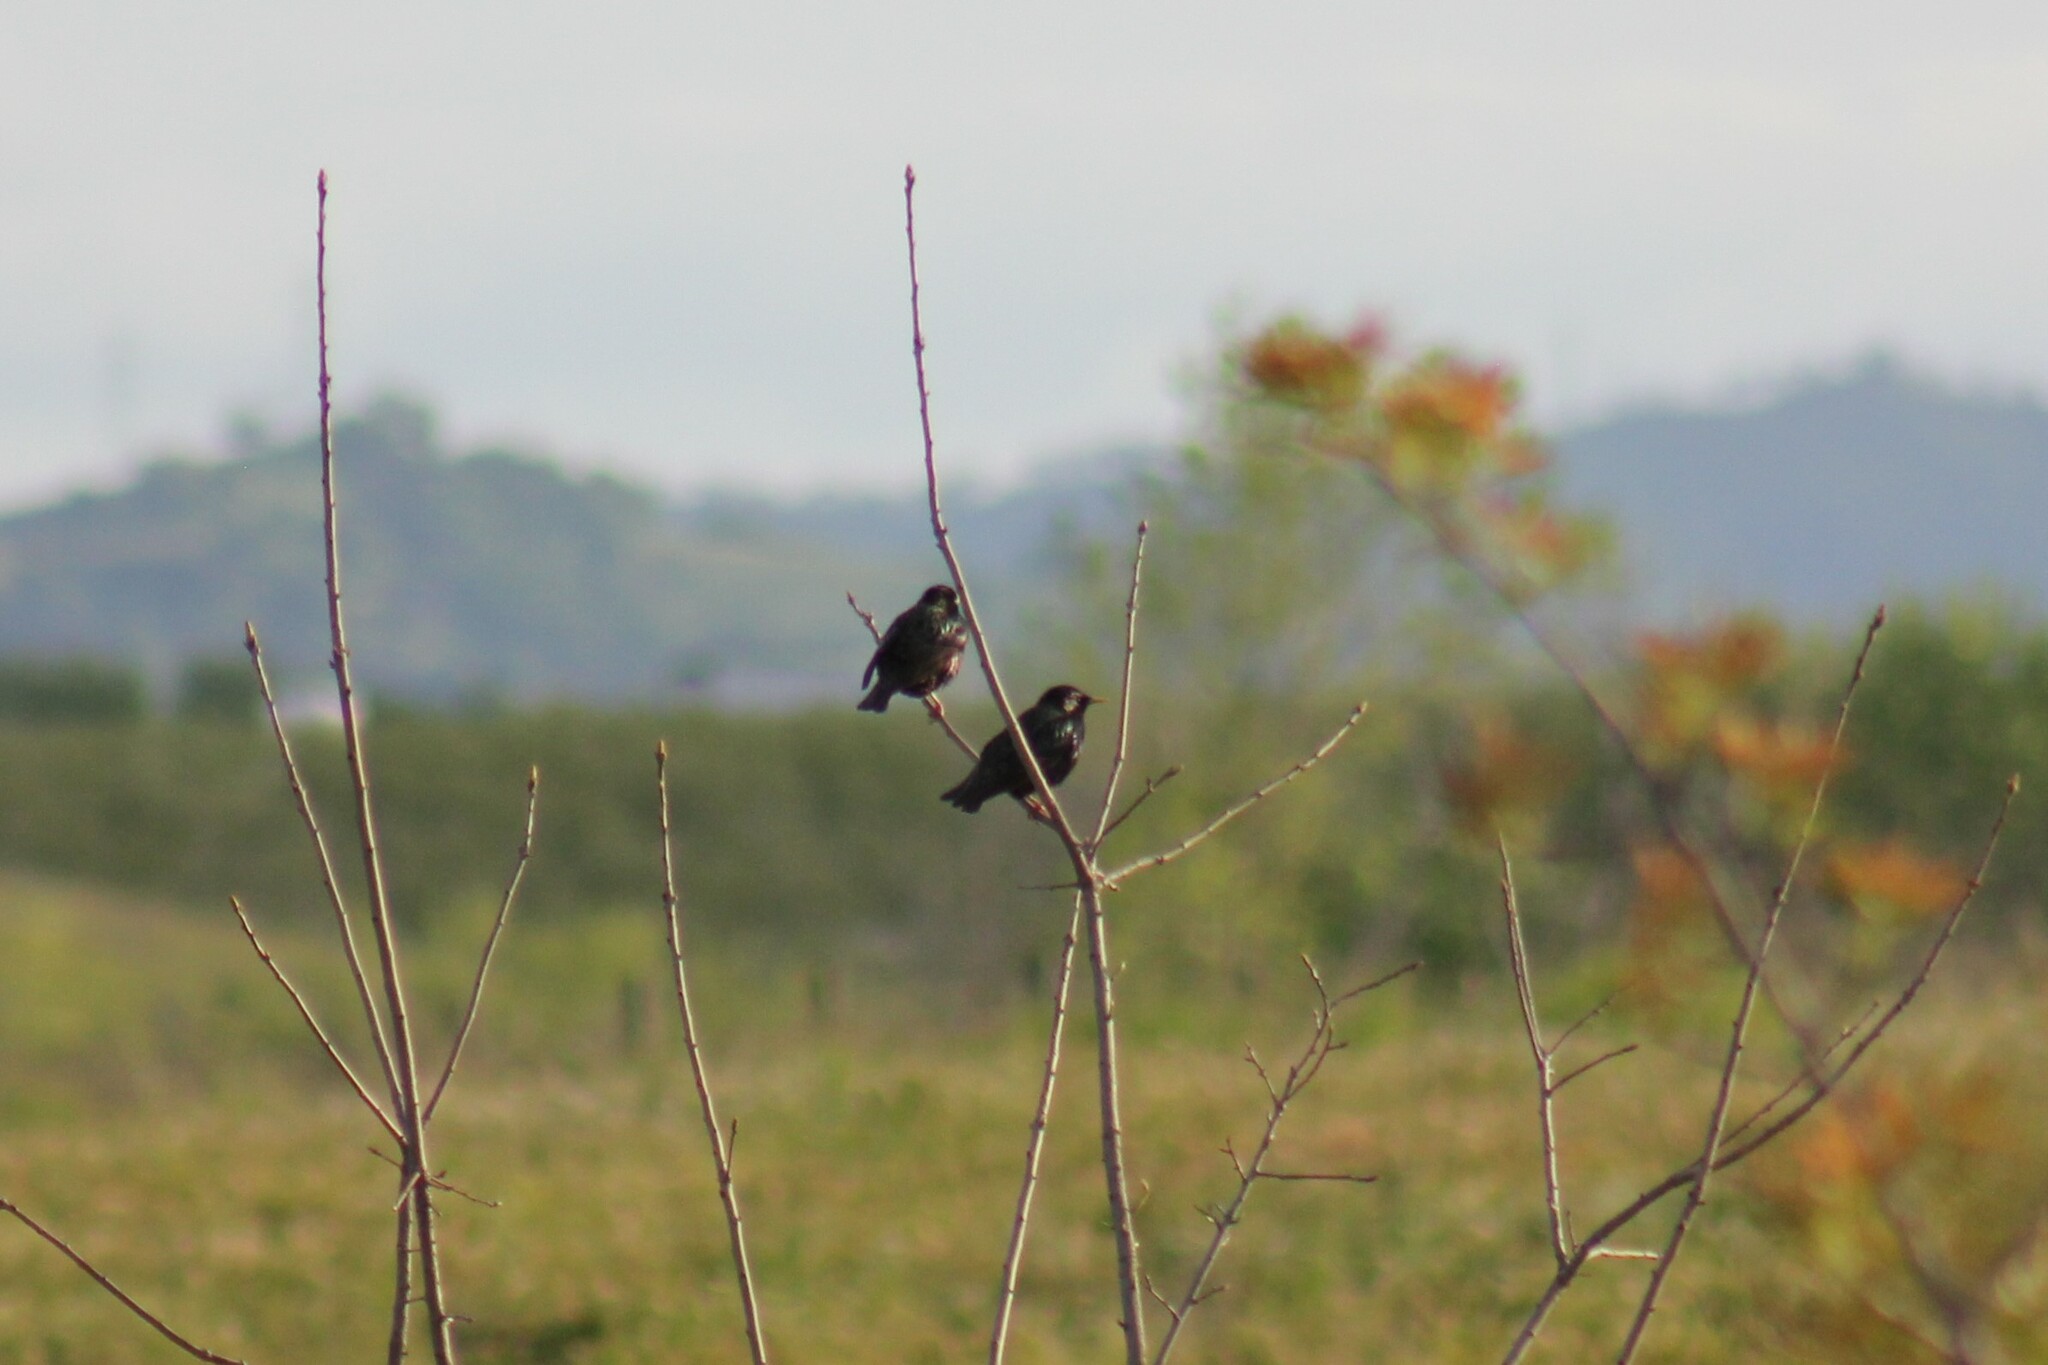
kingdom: Animalia
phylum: Chordata
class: Aves
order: Passeriformes
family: Sturnidae
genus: Sturnus
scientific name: Sturnus vulgaris
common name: Common starling
